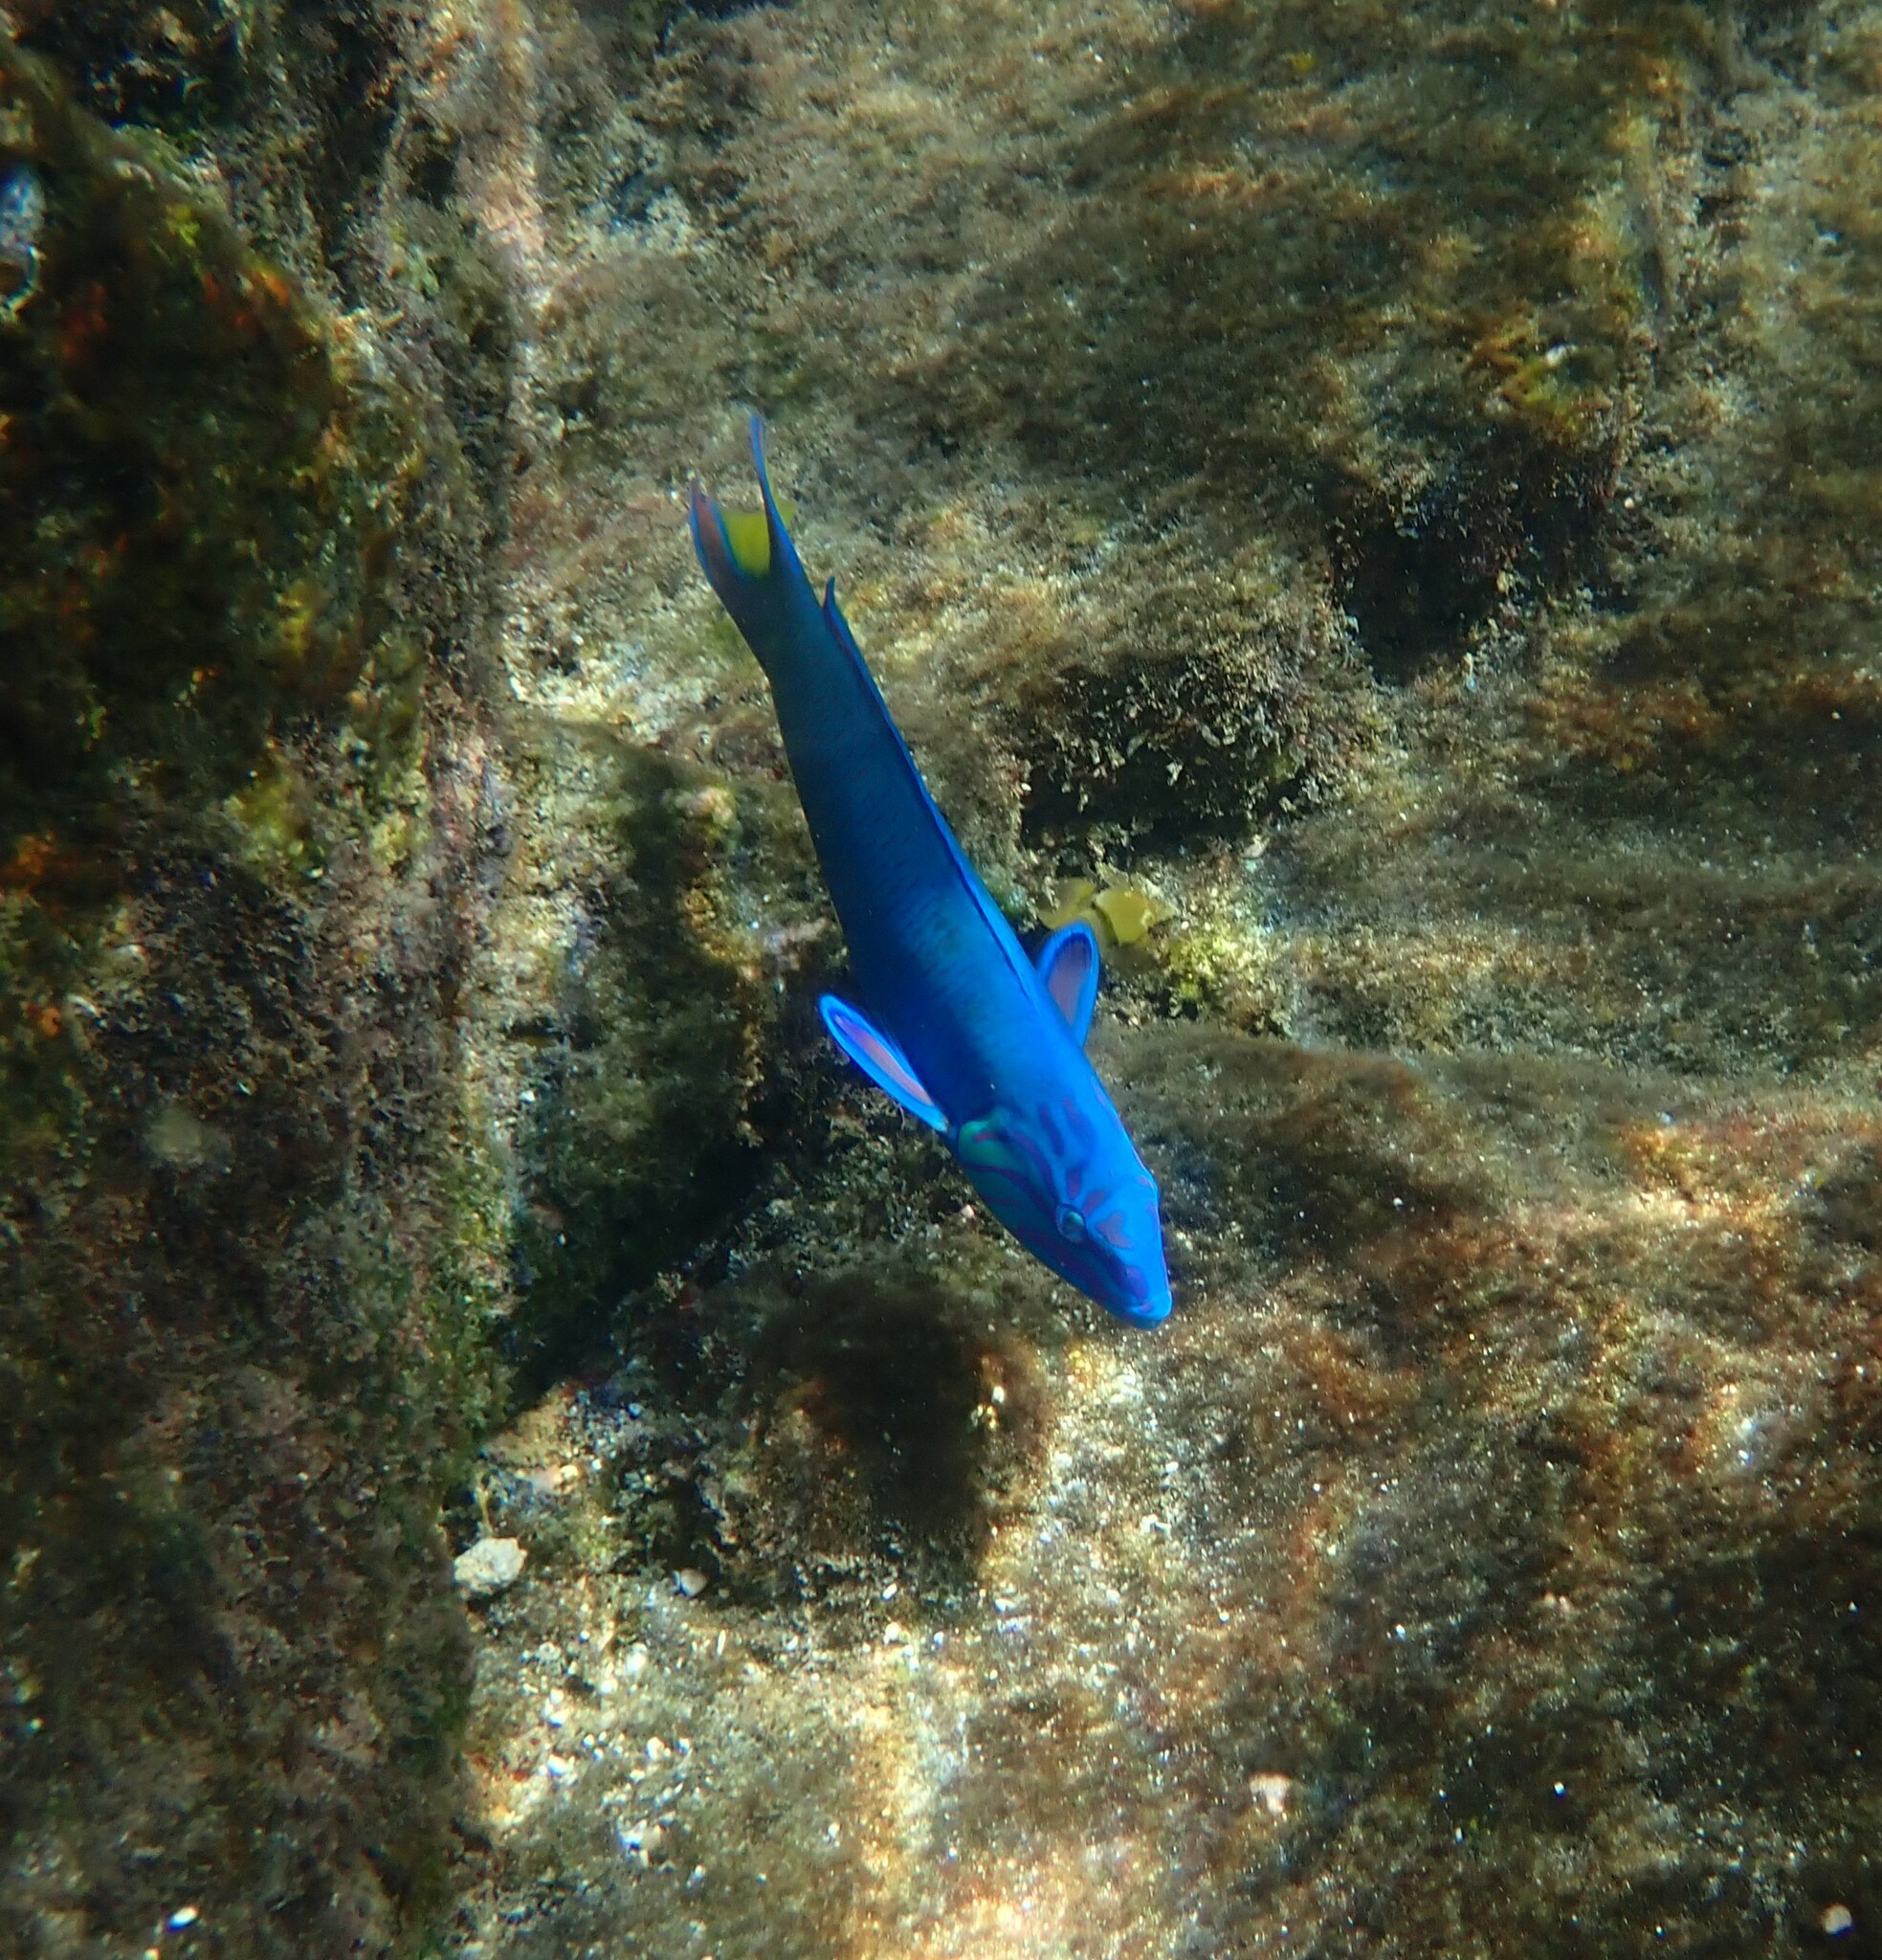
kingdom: Animalia
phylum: Chordata
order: Perciformes
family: Labridae
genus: Thalassoma
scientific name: Thalassoma lunare
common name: Blue wrasse
